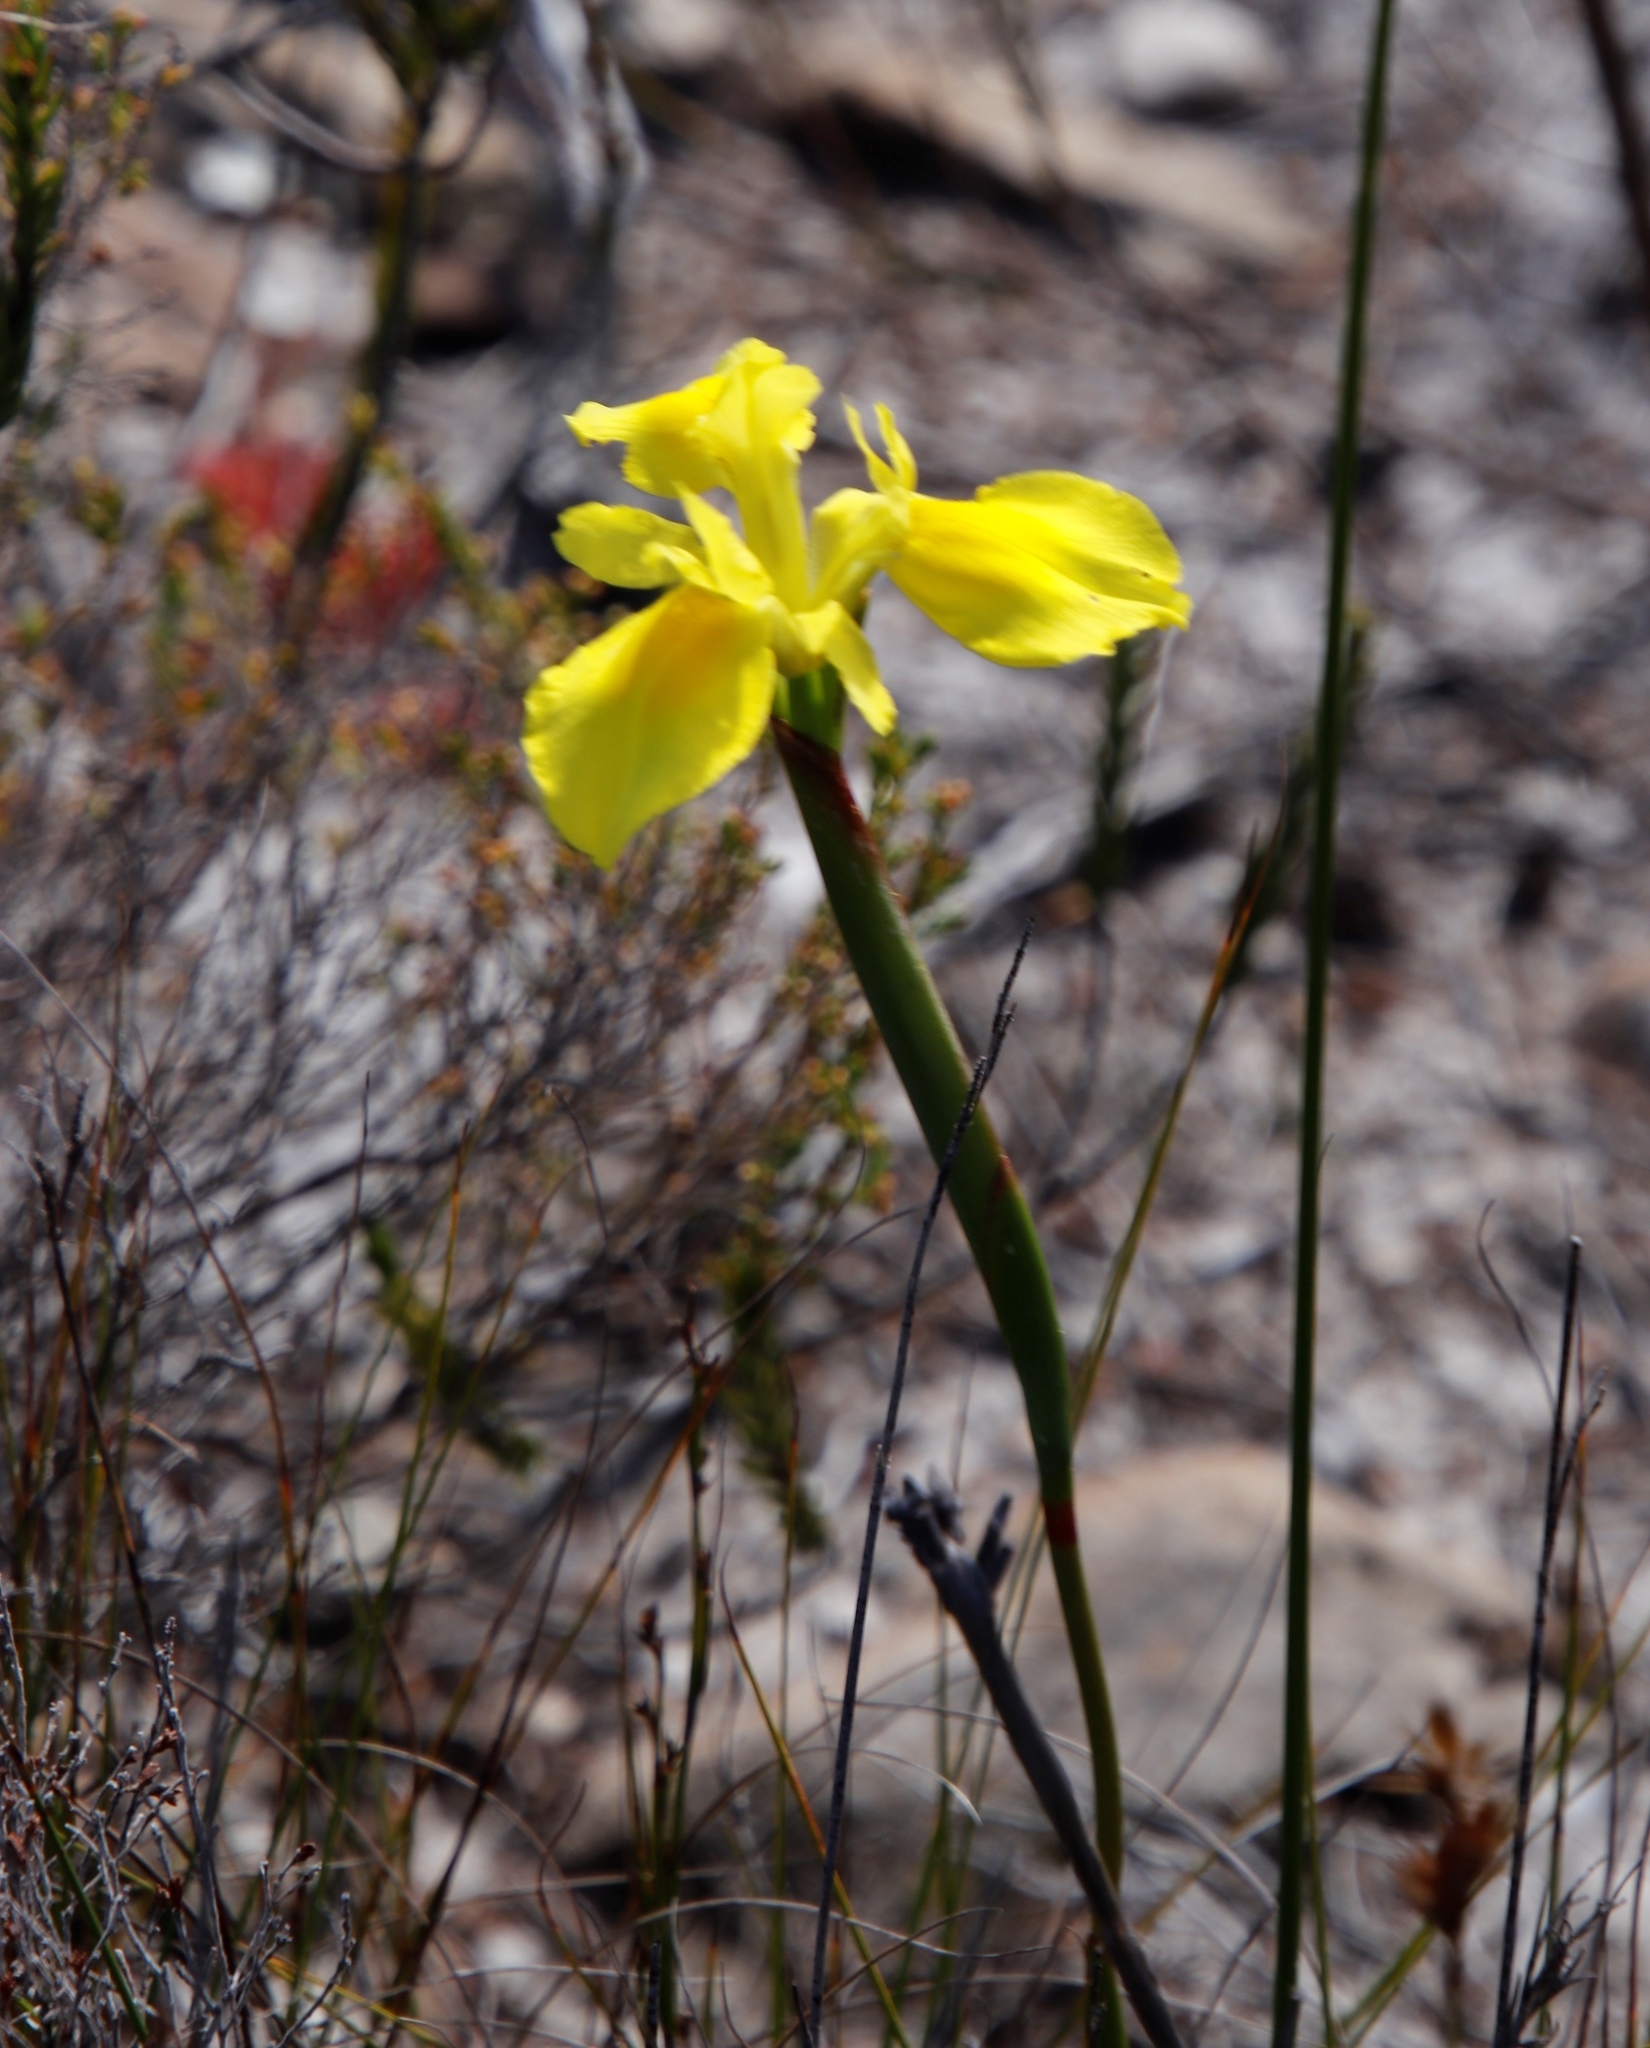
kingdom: Plantae
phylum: Tracheophyta
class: Liliopsida
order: Asparagales
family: Iridaceae
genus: Moraea
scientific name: Moraea neglecta
